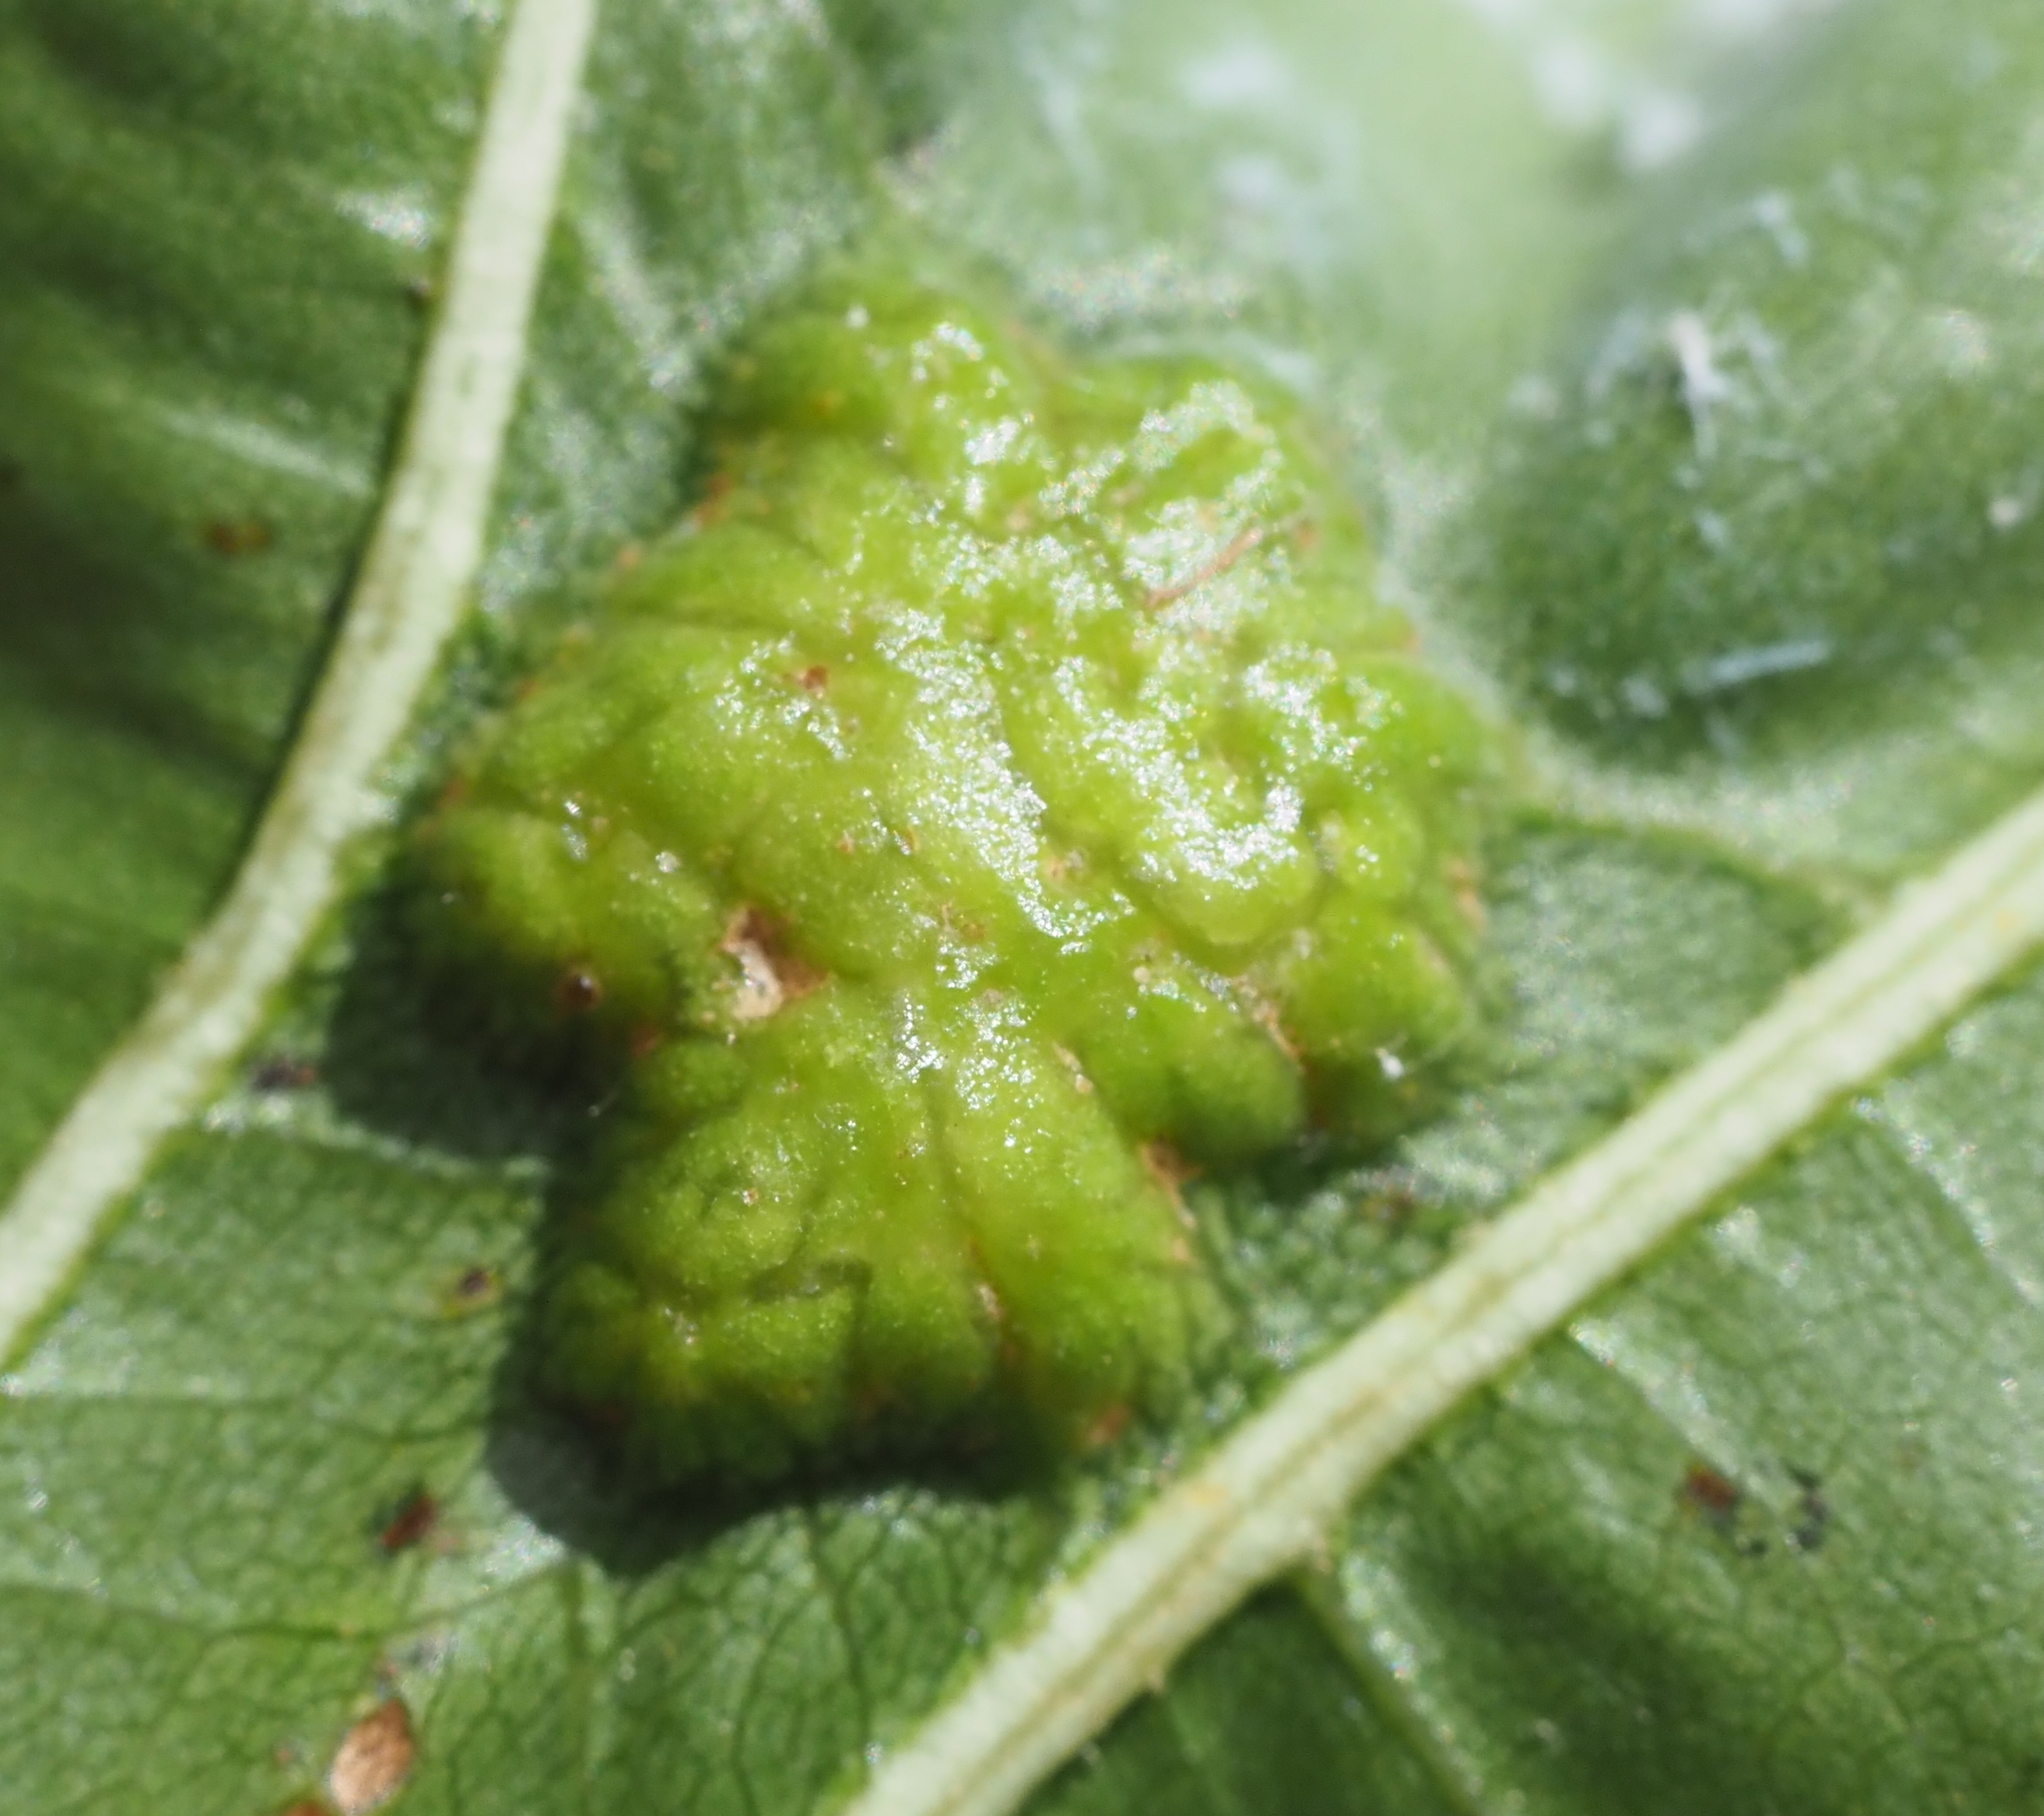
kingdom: Animalia
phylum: Arthropoda
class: Insecta
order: Hymenoptera
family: Cynipidae
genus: Callirhytis
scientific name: Callirhytis
